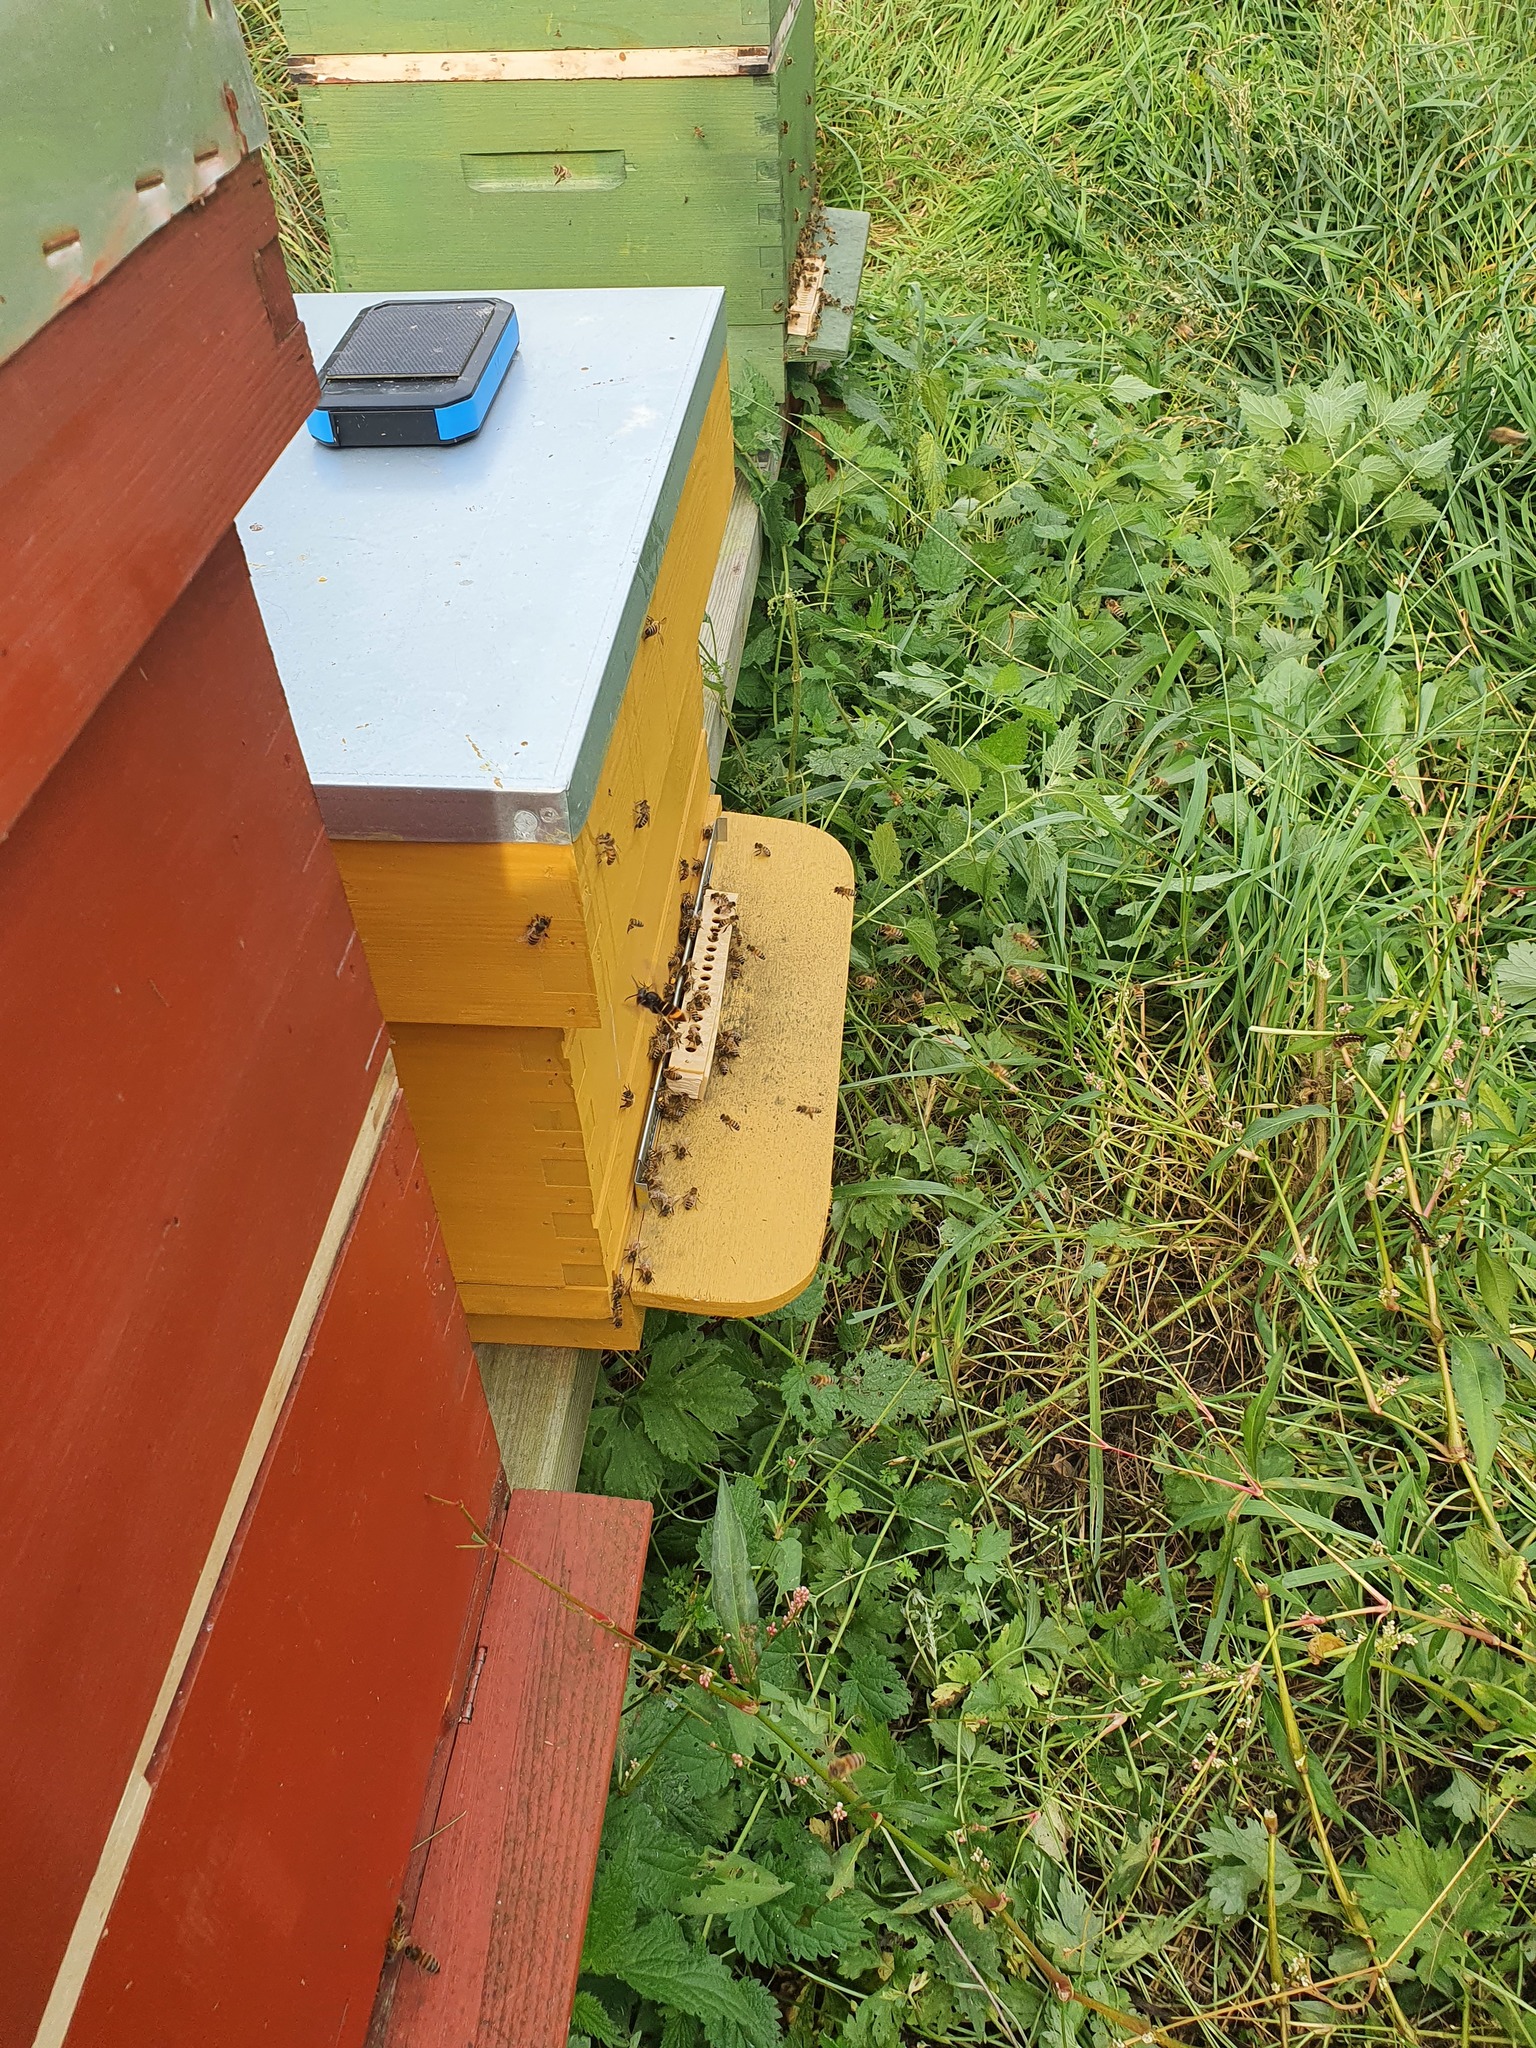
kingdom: Animalia
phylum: Arthropoda
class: Insecta
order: Hymenoptera
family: Vespidae
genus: Vespa
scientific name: Vespa velutina
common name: Asian hornet
